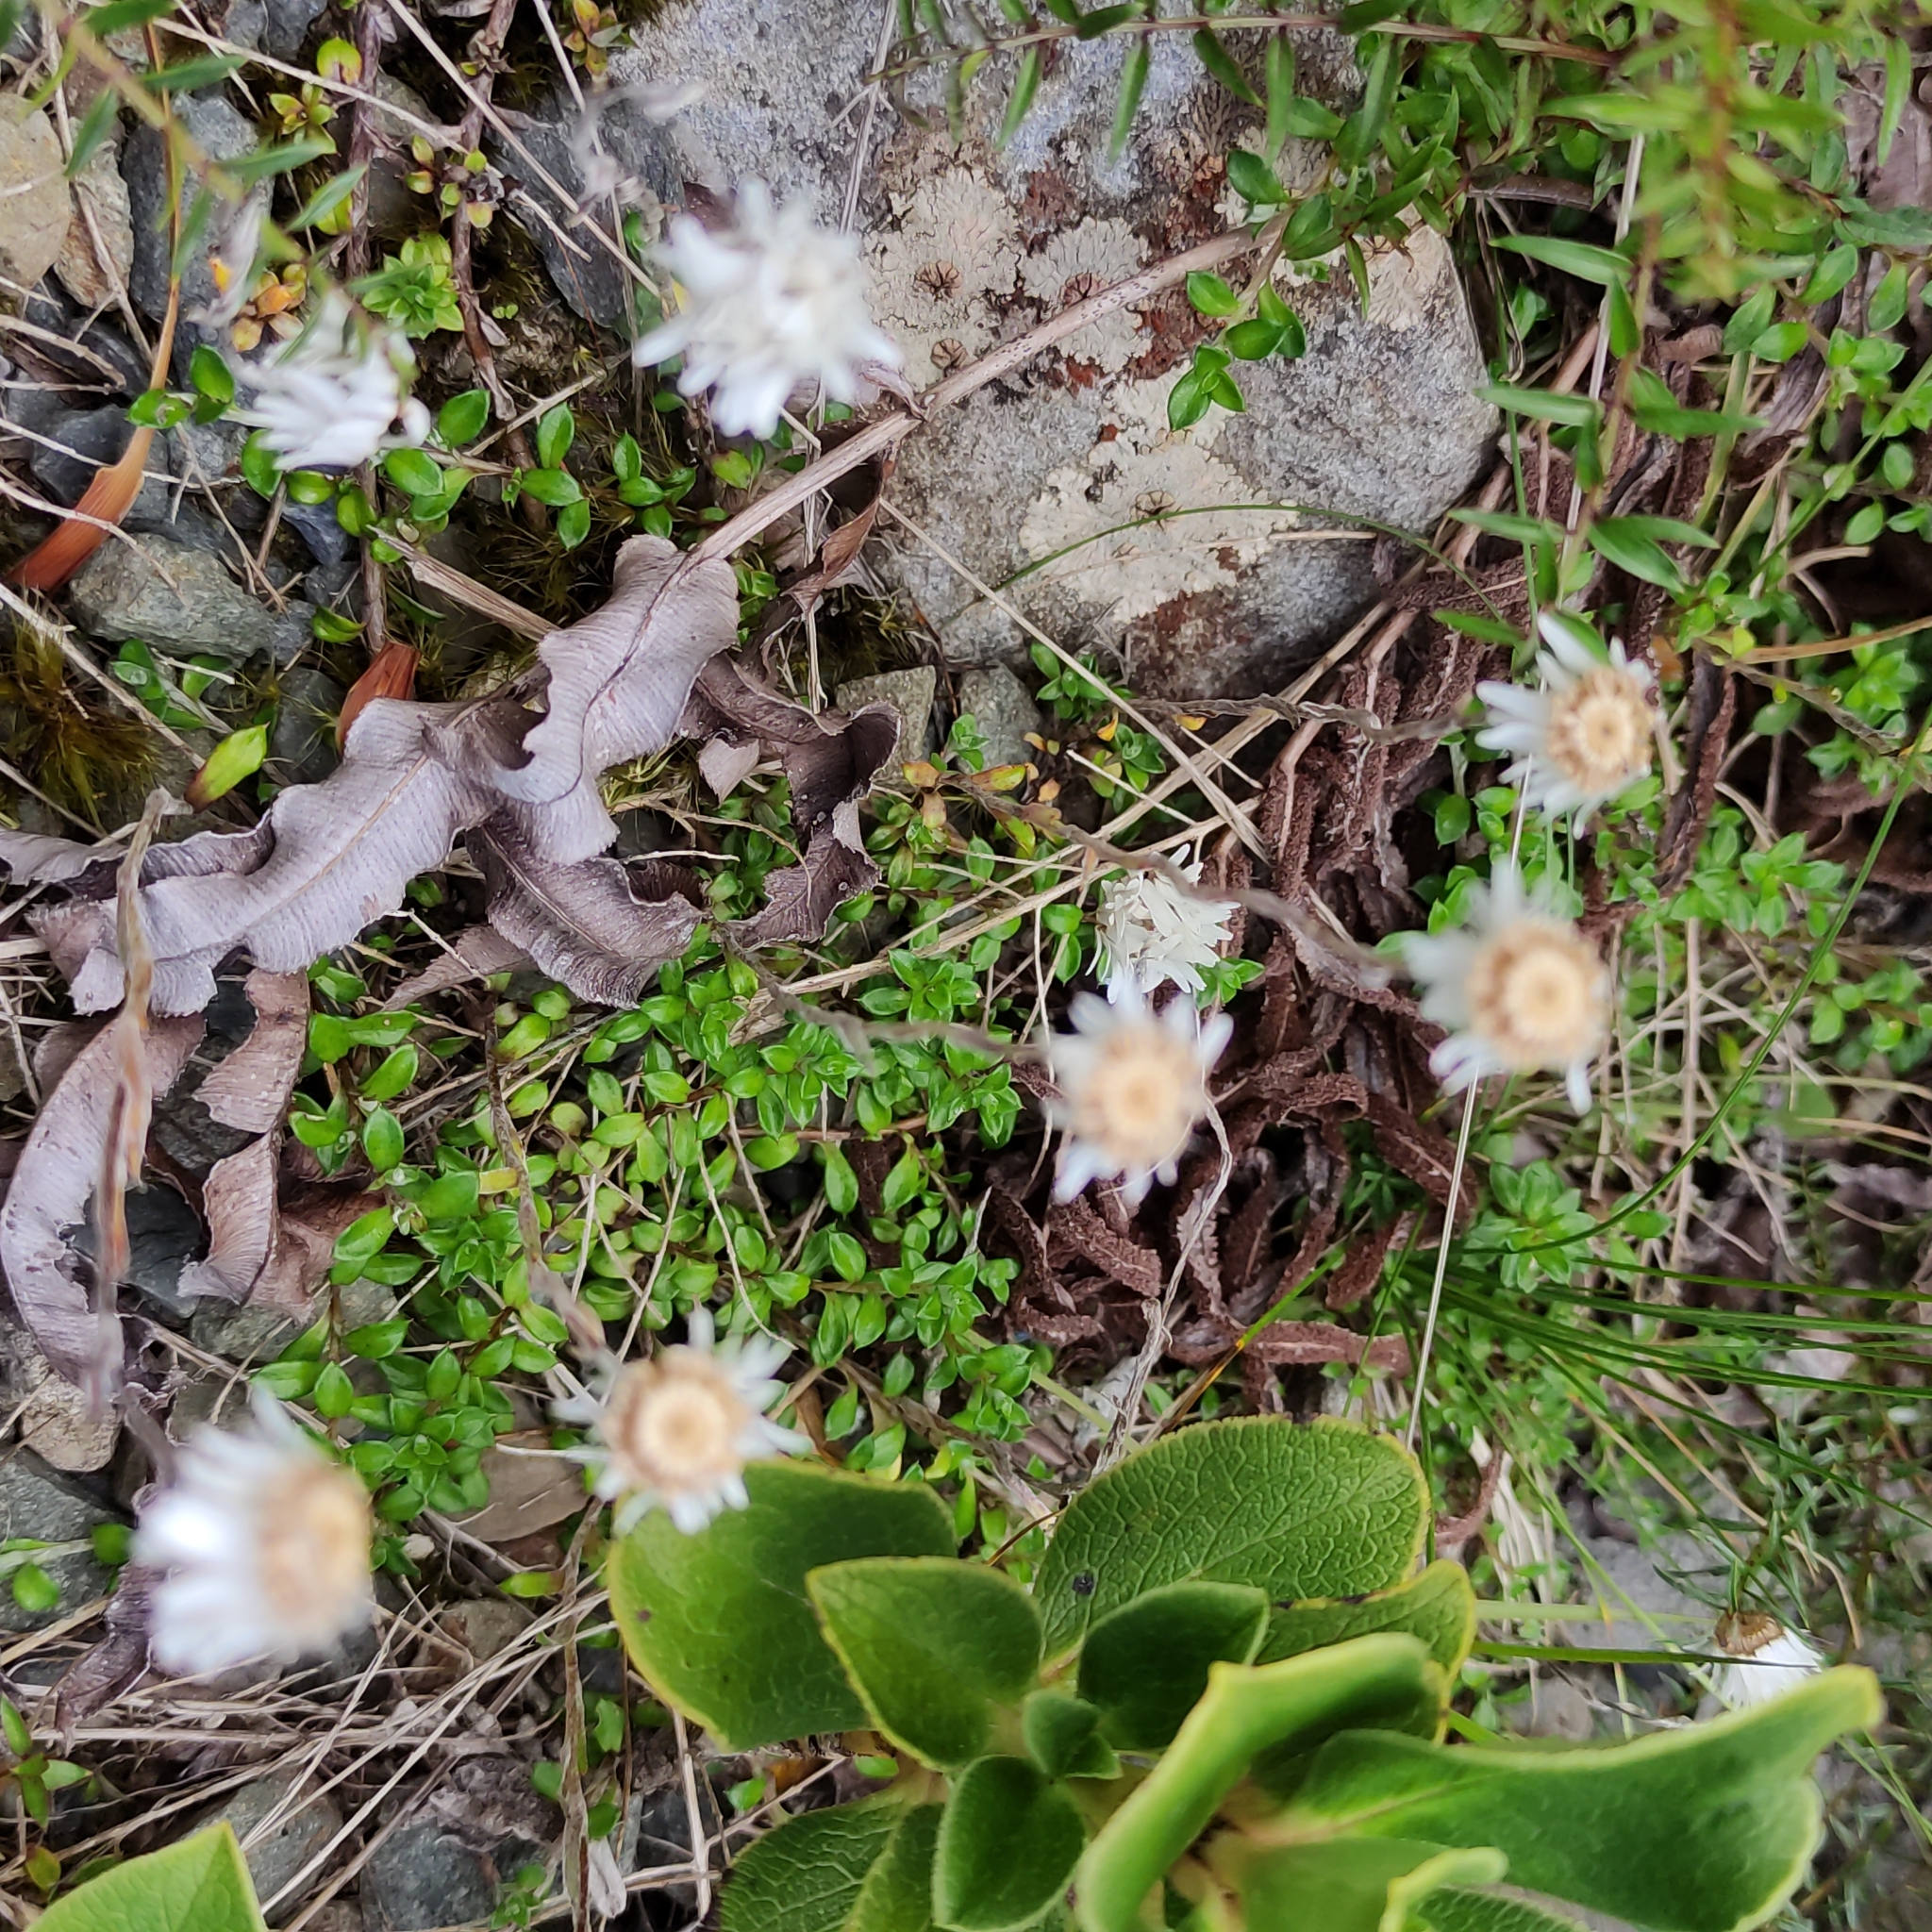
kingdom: Plantae
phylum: Tracheophyta
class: Magnoliopsida
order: Asterales
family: Asteraceae
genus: Anaphalioides
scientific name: Anaphalioides bellidioides
